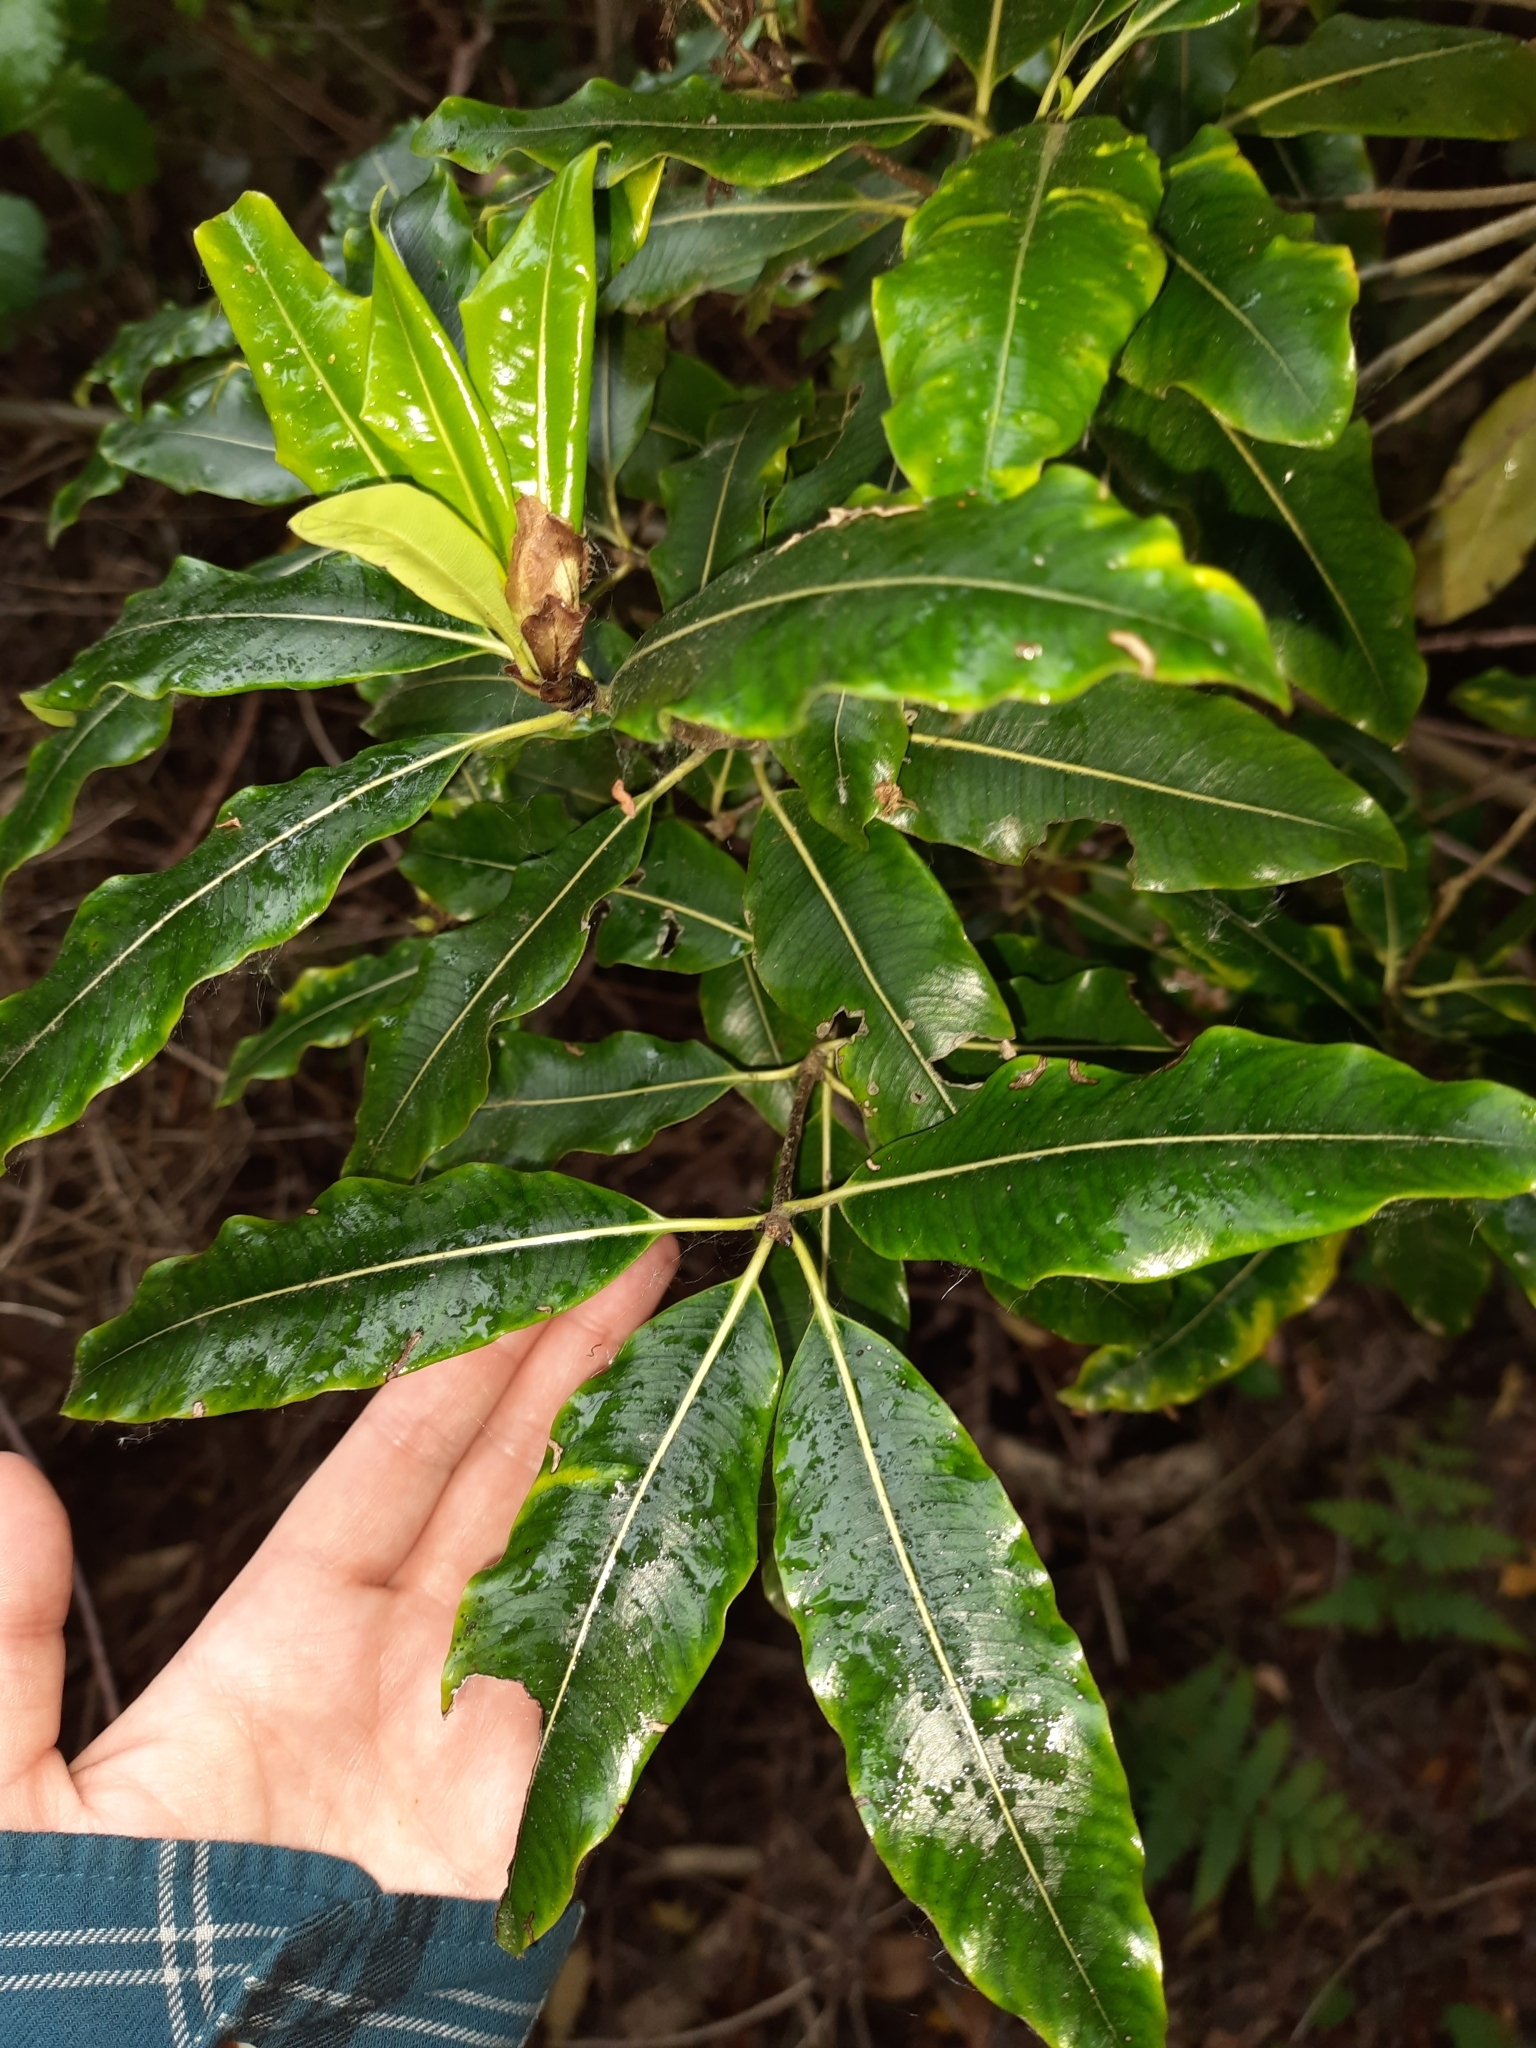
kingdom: Plantae
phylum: Tracheophyta
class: Magnoliopsida
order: Apiales
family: Pittosporaceae
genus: Pittosporum
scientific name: Pittosporum eugenioides
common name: Lemonwood
